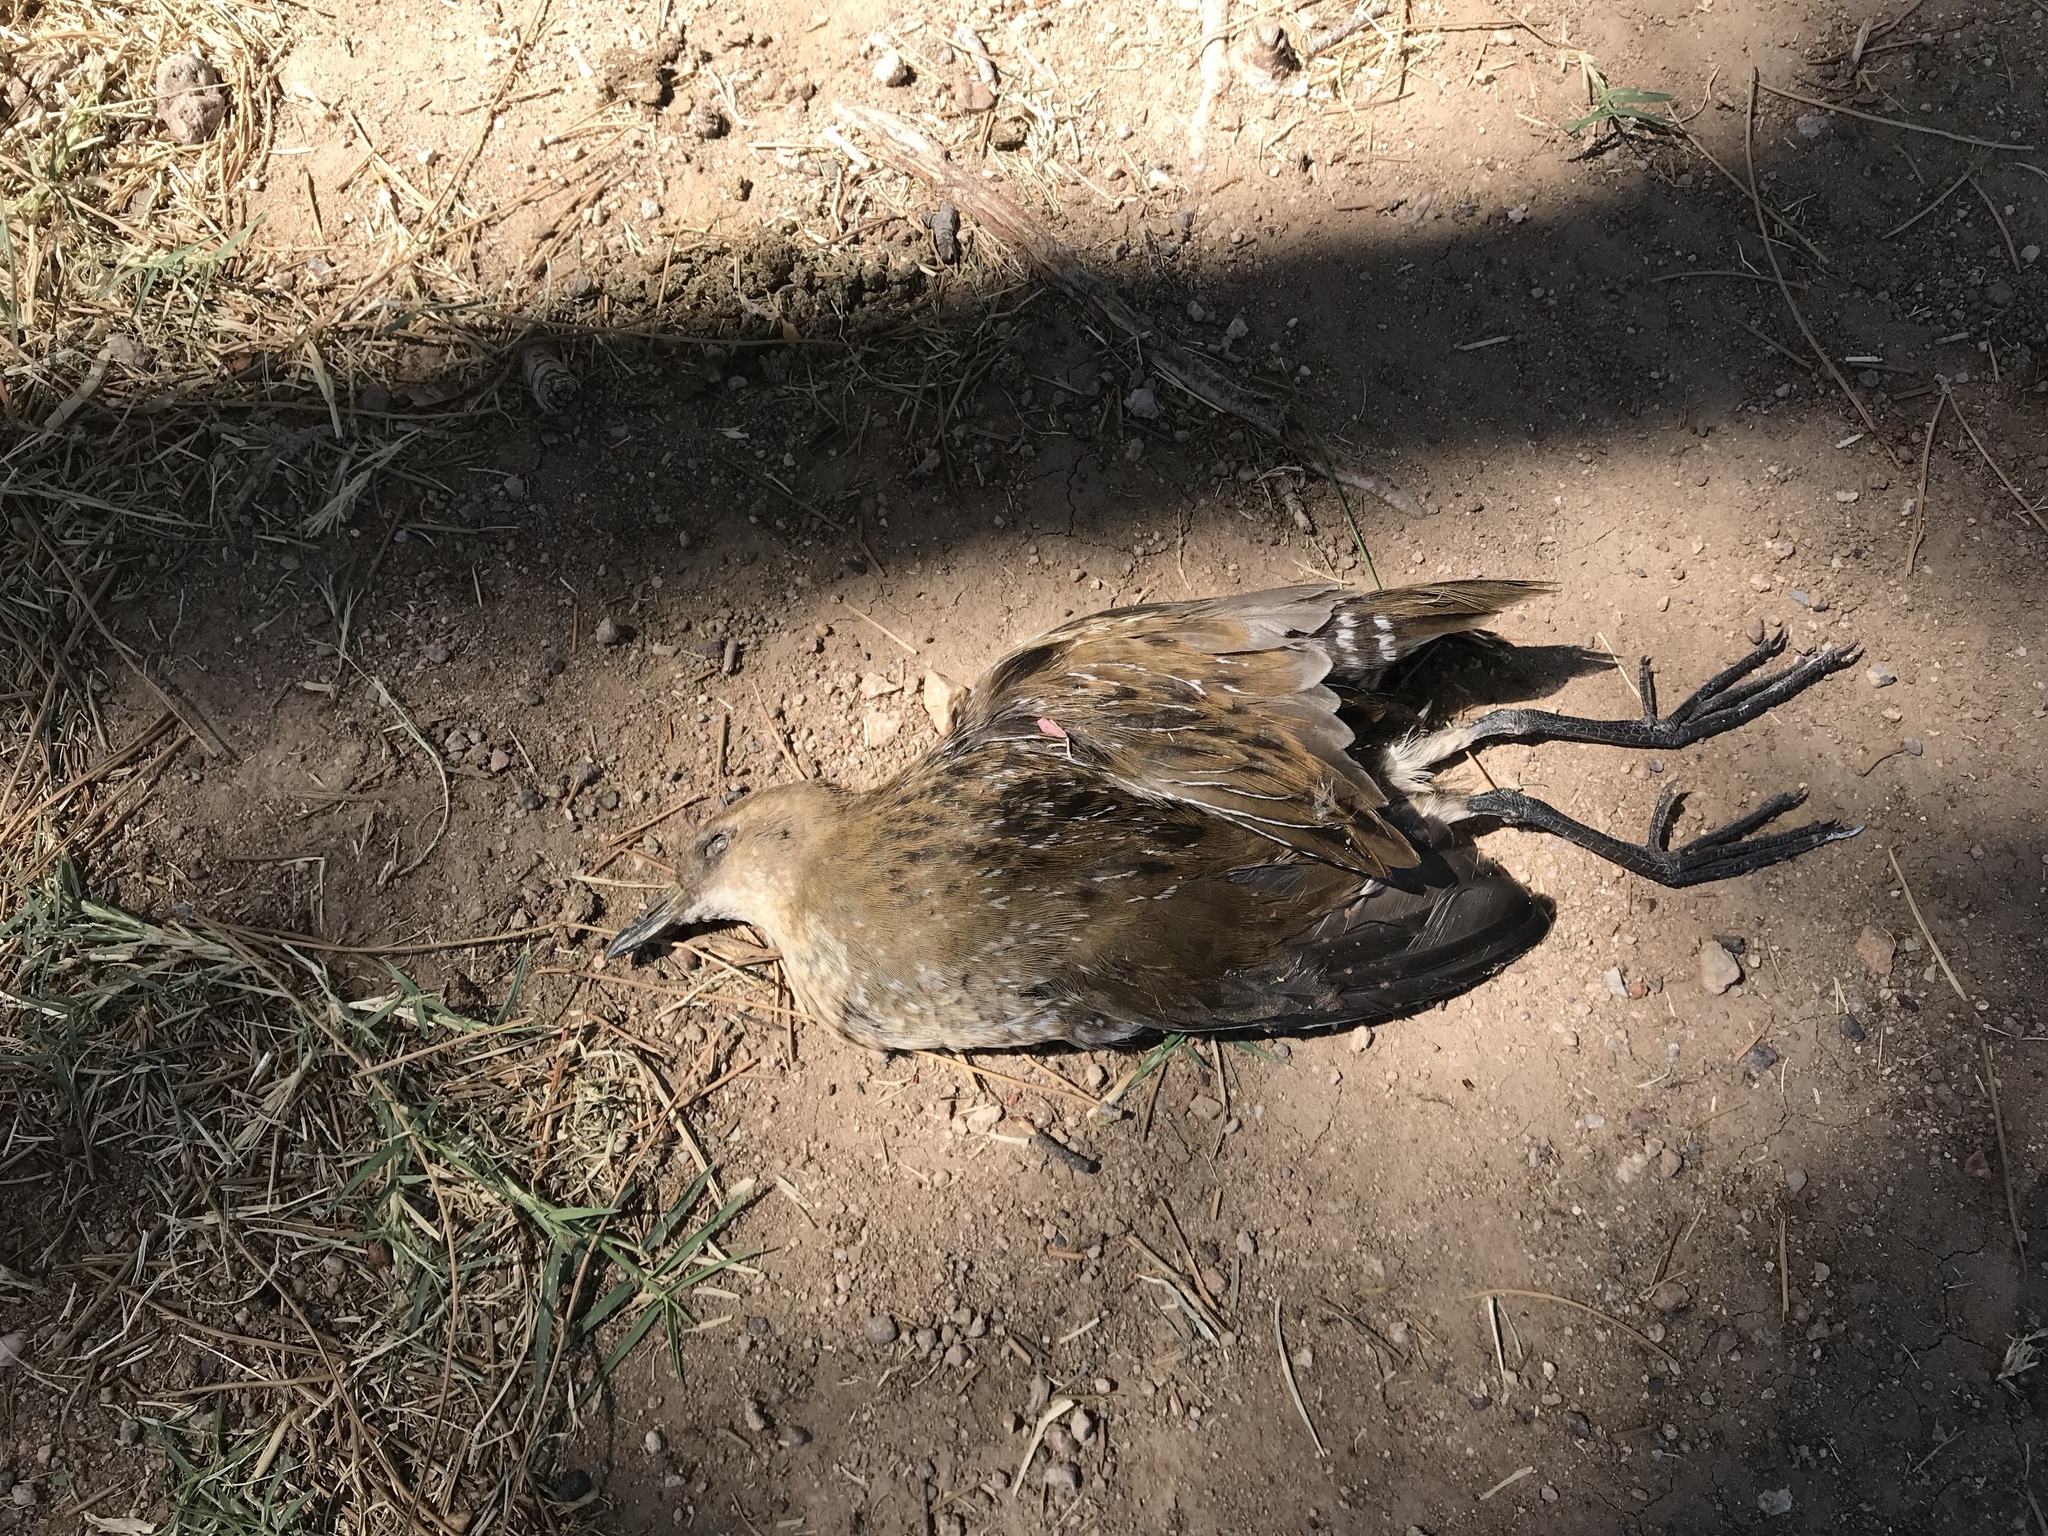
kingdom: Animalia
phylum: Chordata
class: Aves
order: Gruiformes
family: Rallidae
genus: Porzana
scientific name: Porzana carolina
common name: Sora
